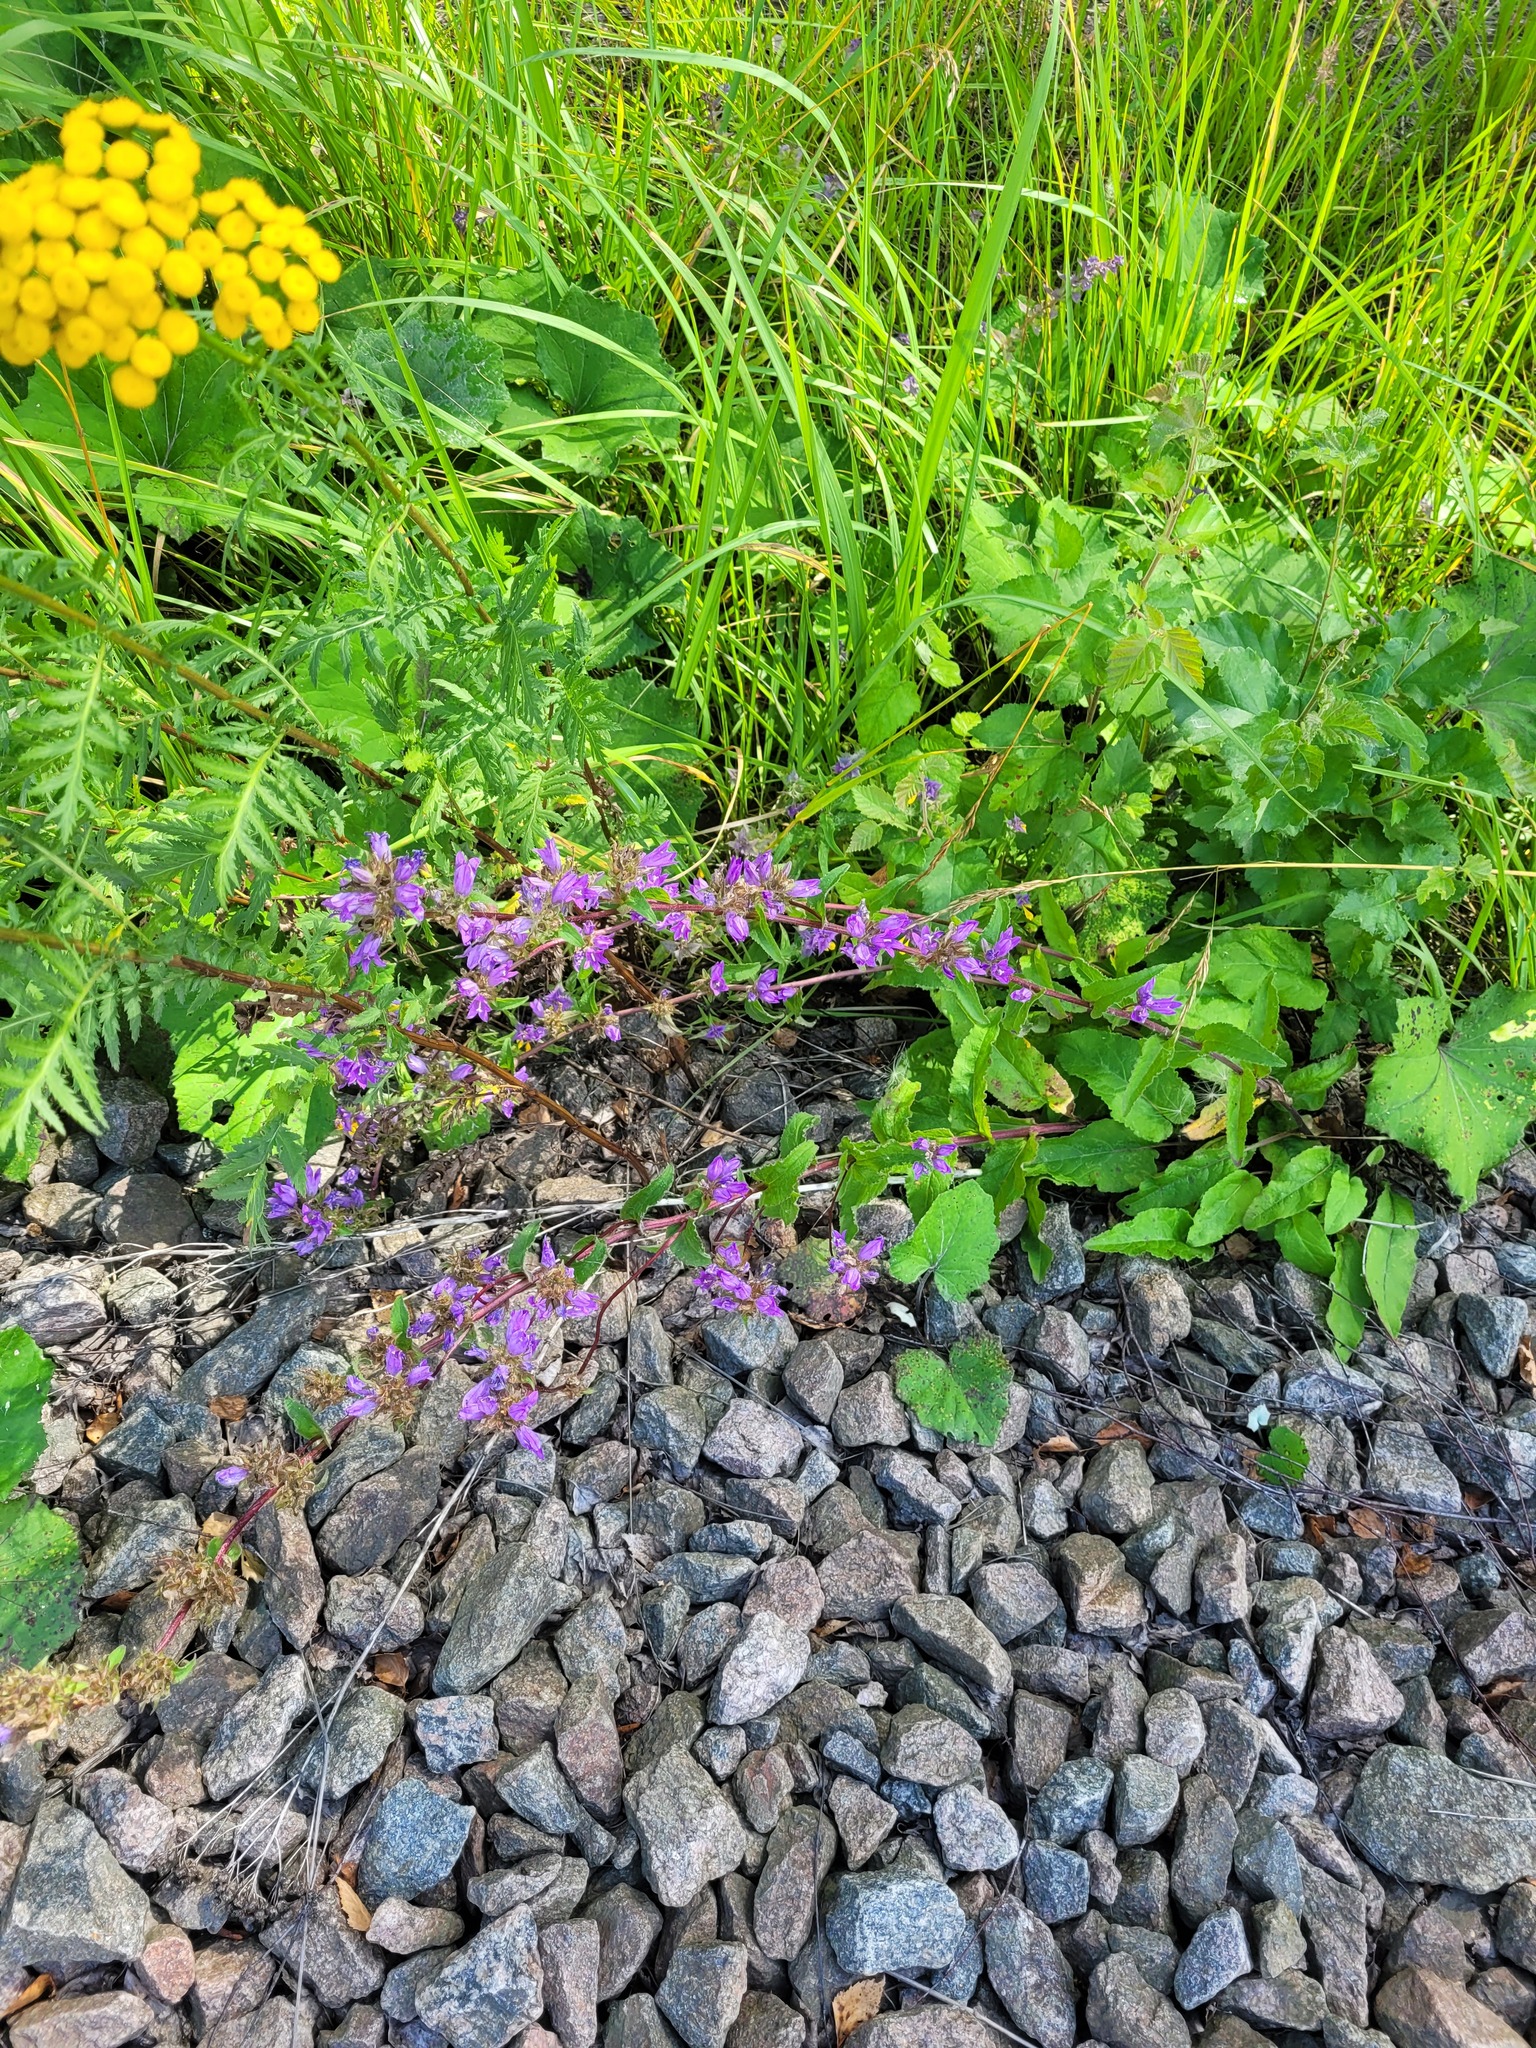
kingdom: Plantae
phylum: Tracheophyta
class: Magnoliopsida
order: Asterales
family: Campanulaceae
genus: Campanula
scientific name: Campanula glomerata
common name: Clustered bellflower
